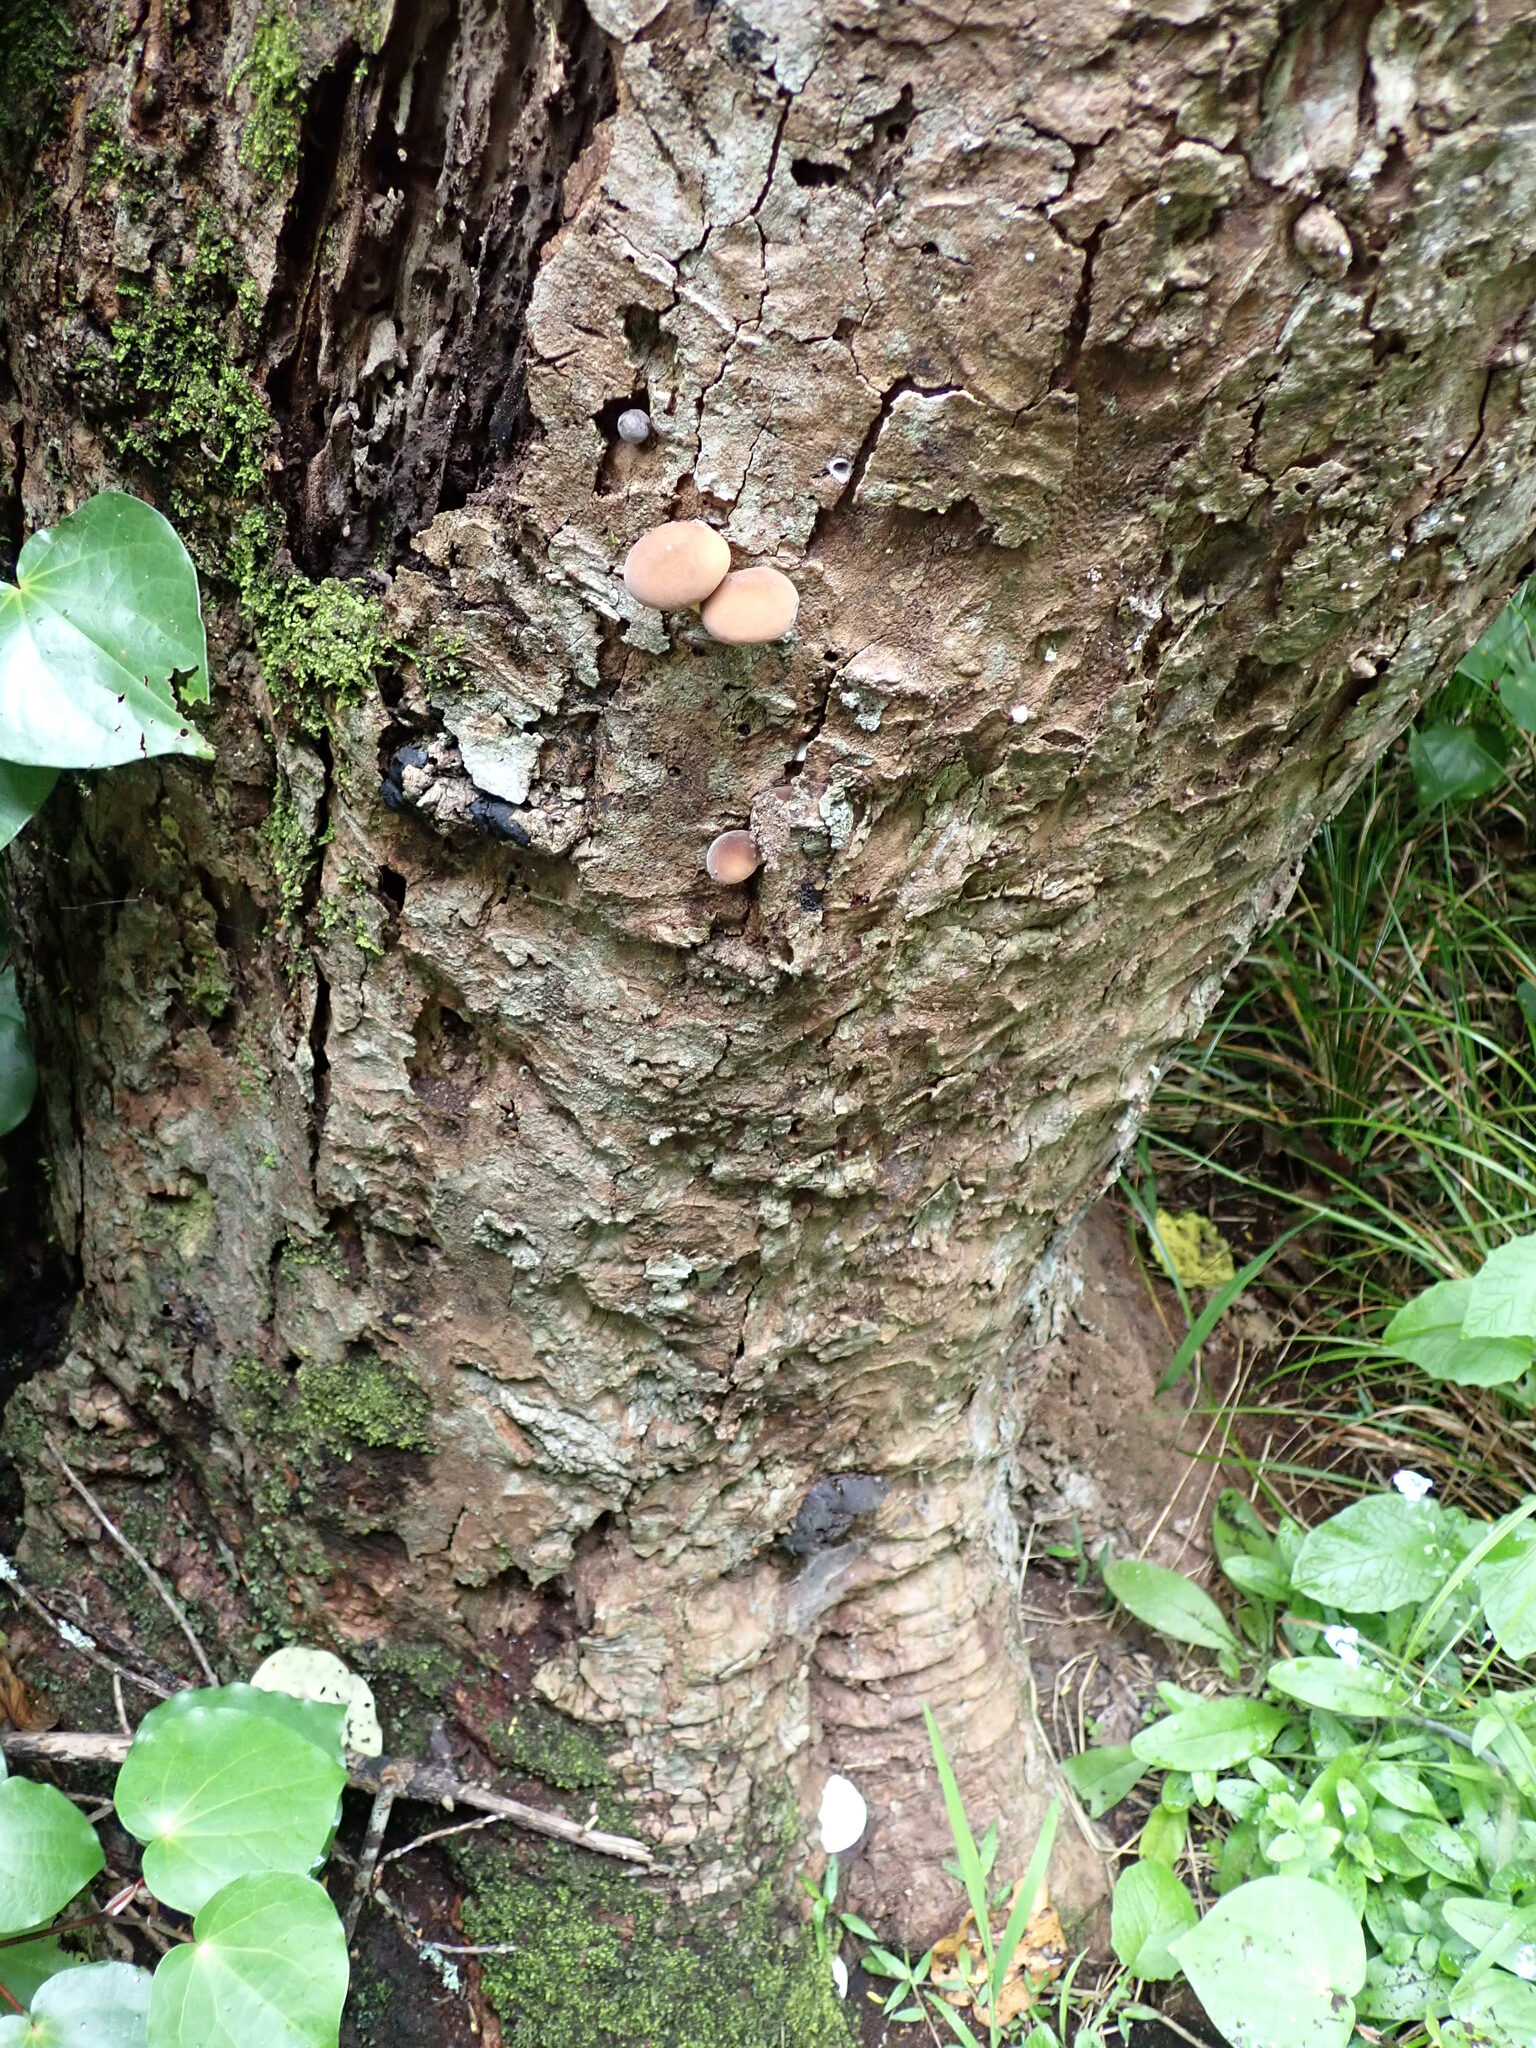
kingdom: Fungi
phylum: Basidiomycota
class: Agaricomycetes
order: Agaricales
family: Tubariaceae
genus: Cyclocybe
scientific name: Cyclocybe parasitica
